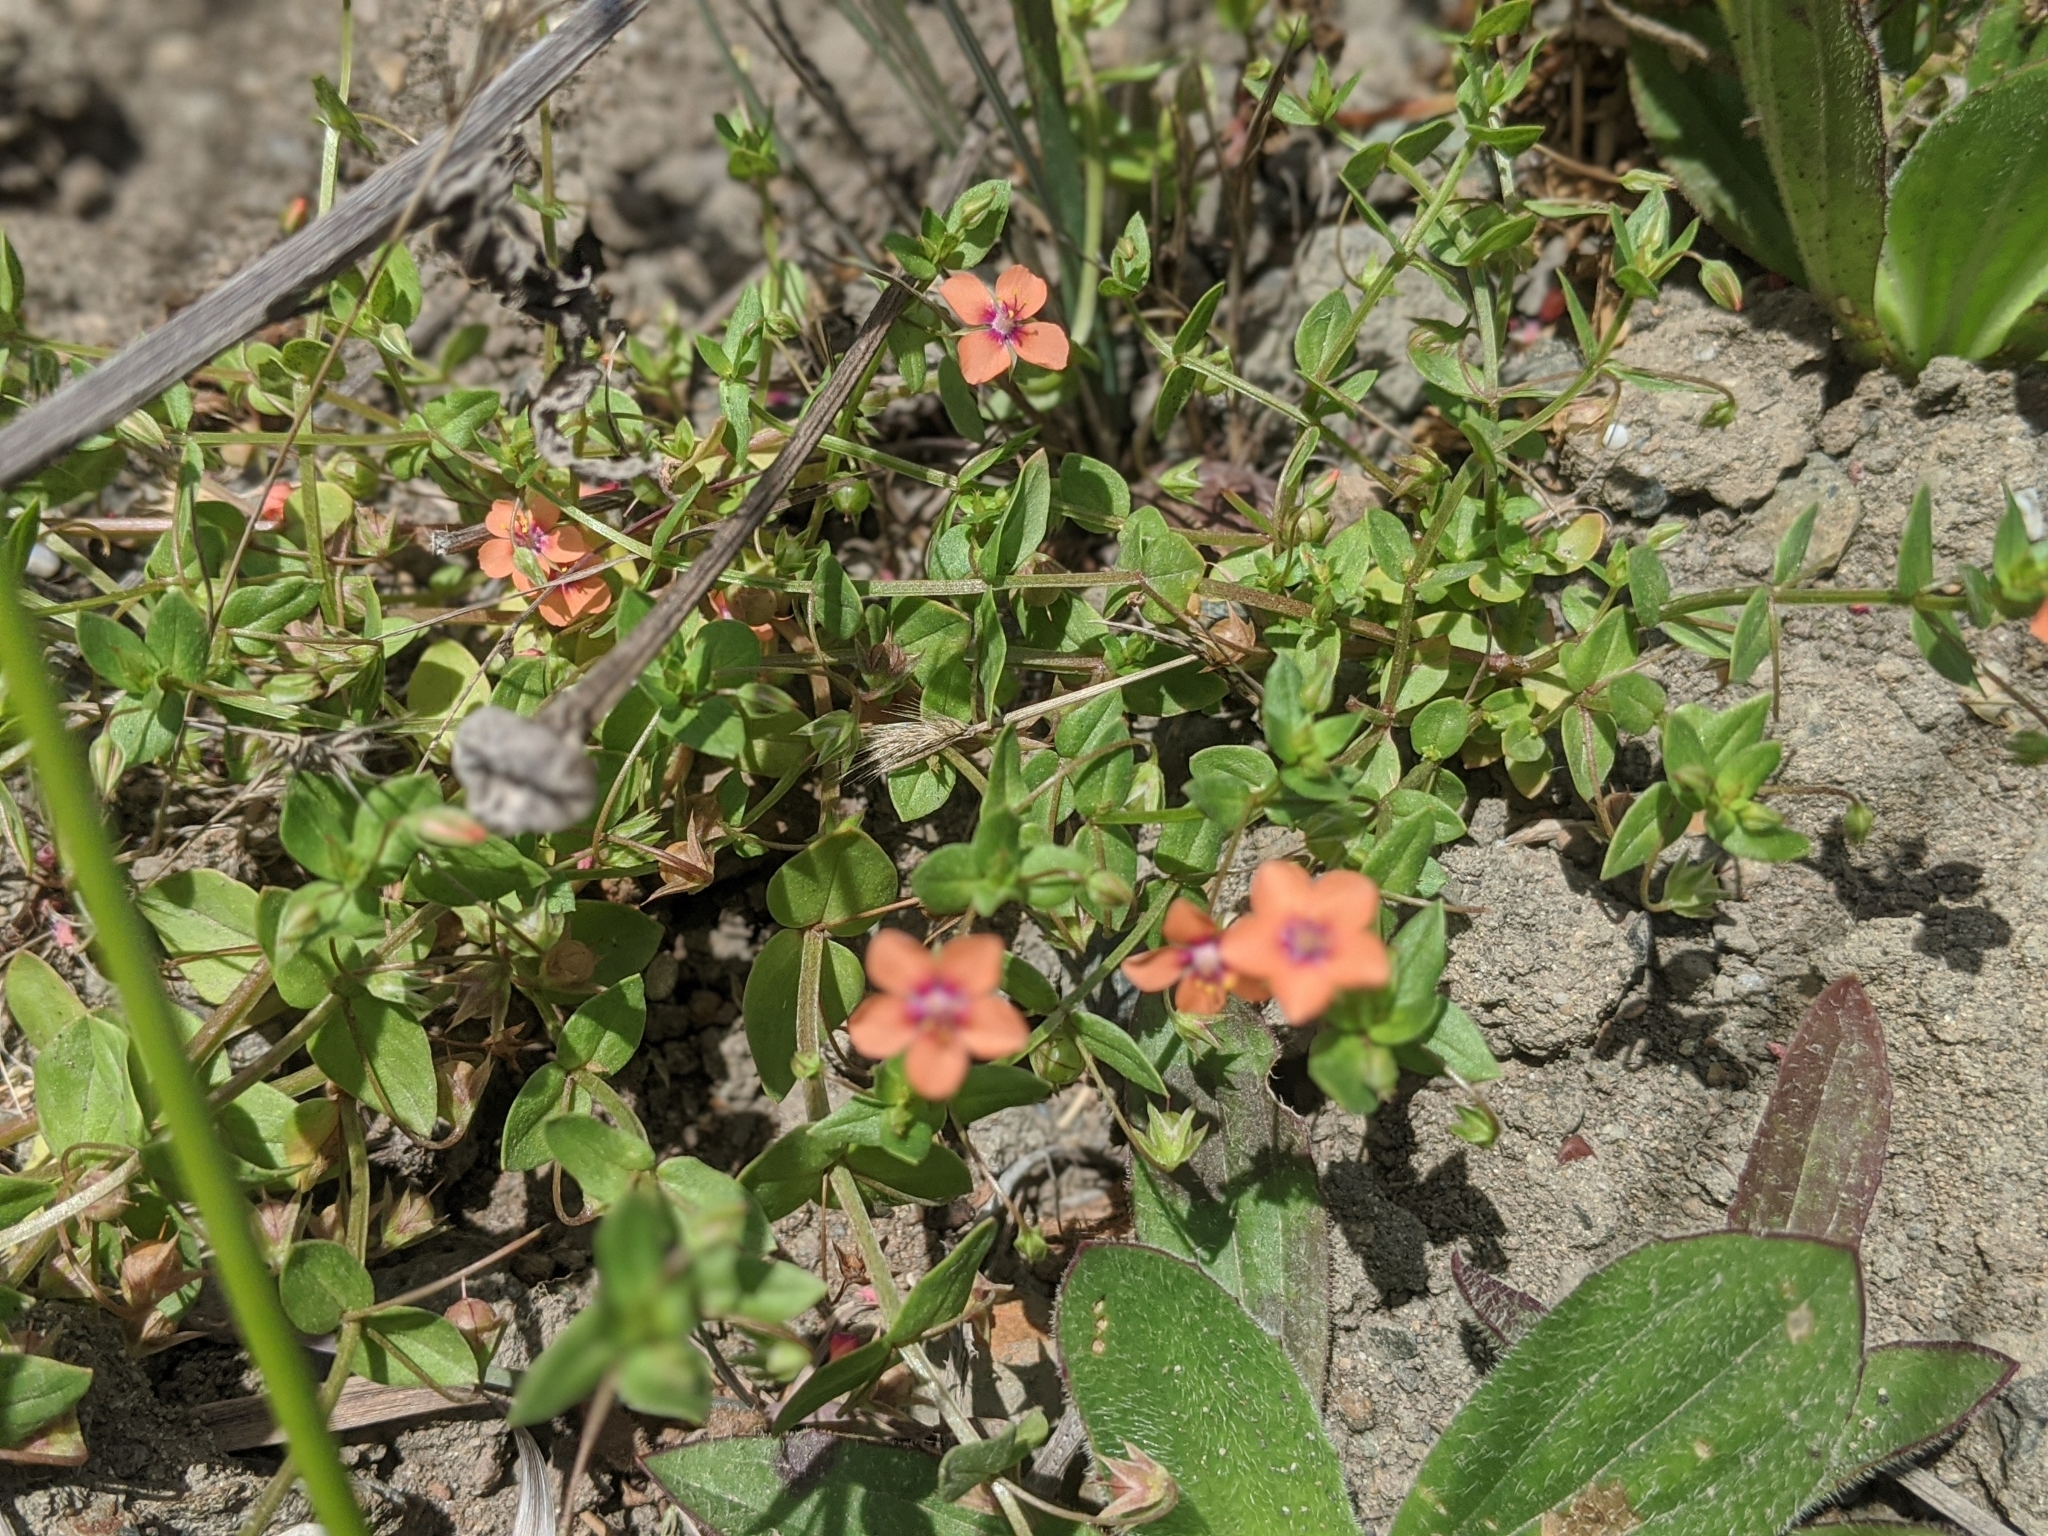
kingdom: Plantae
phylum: Tracheophyta
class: Magnoliopsida
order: Ericales
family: Primulaceae
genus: Lysimachia
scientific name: Lysimachia arvensis
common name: Scarlet pimpernel
